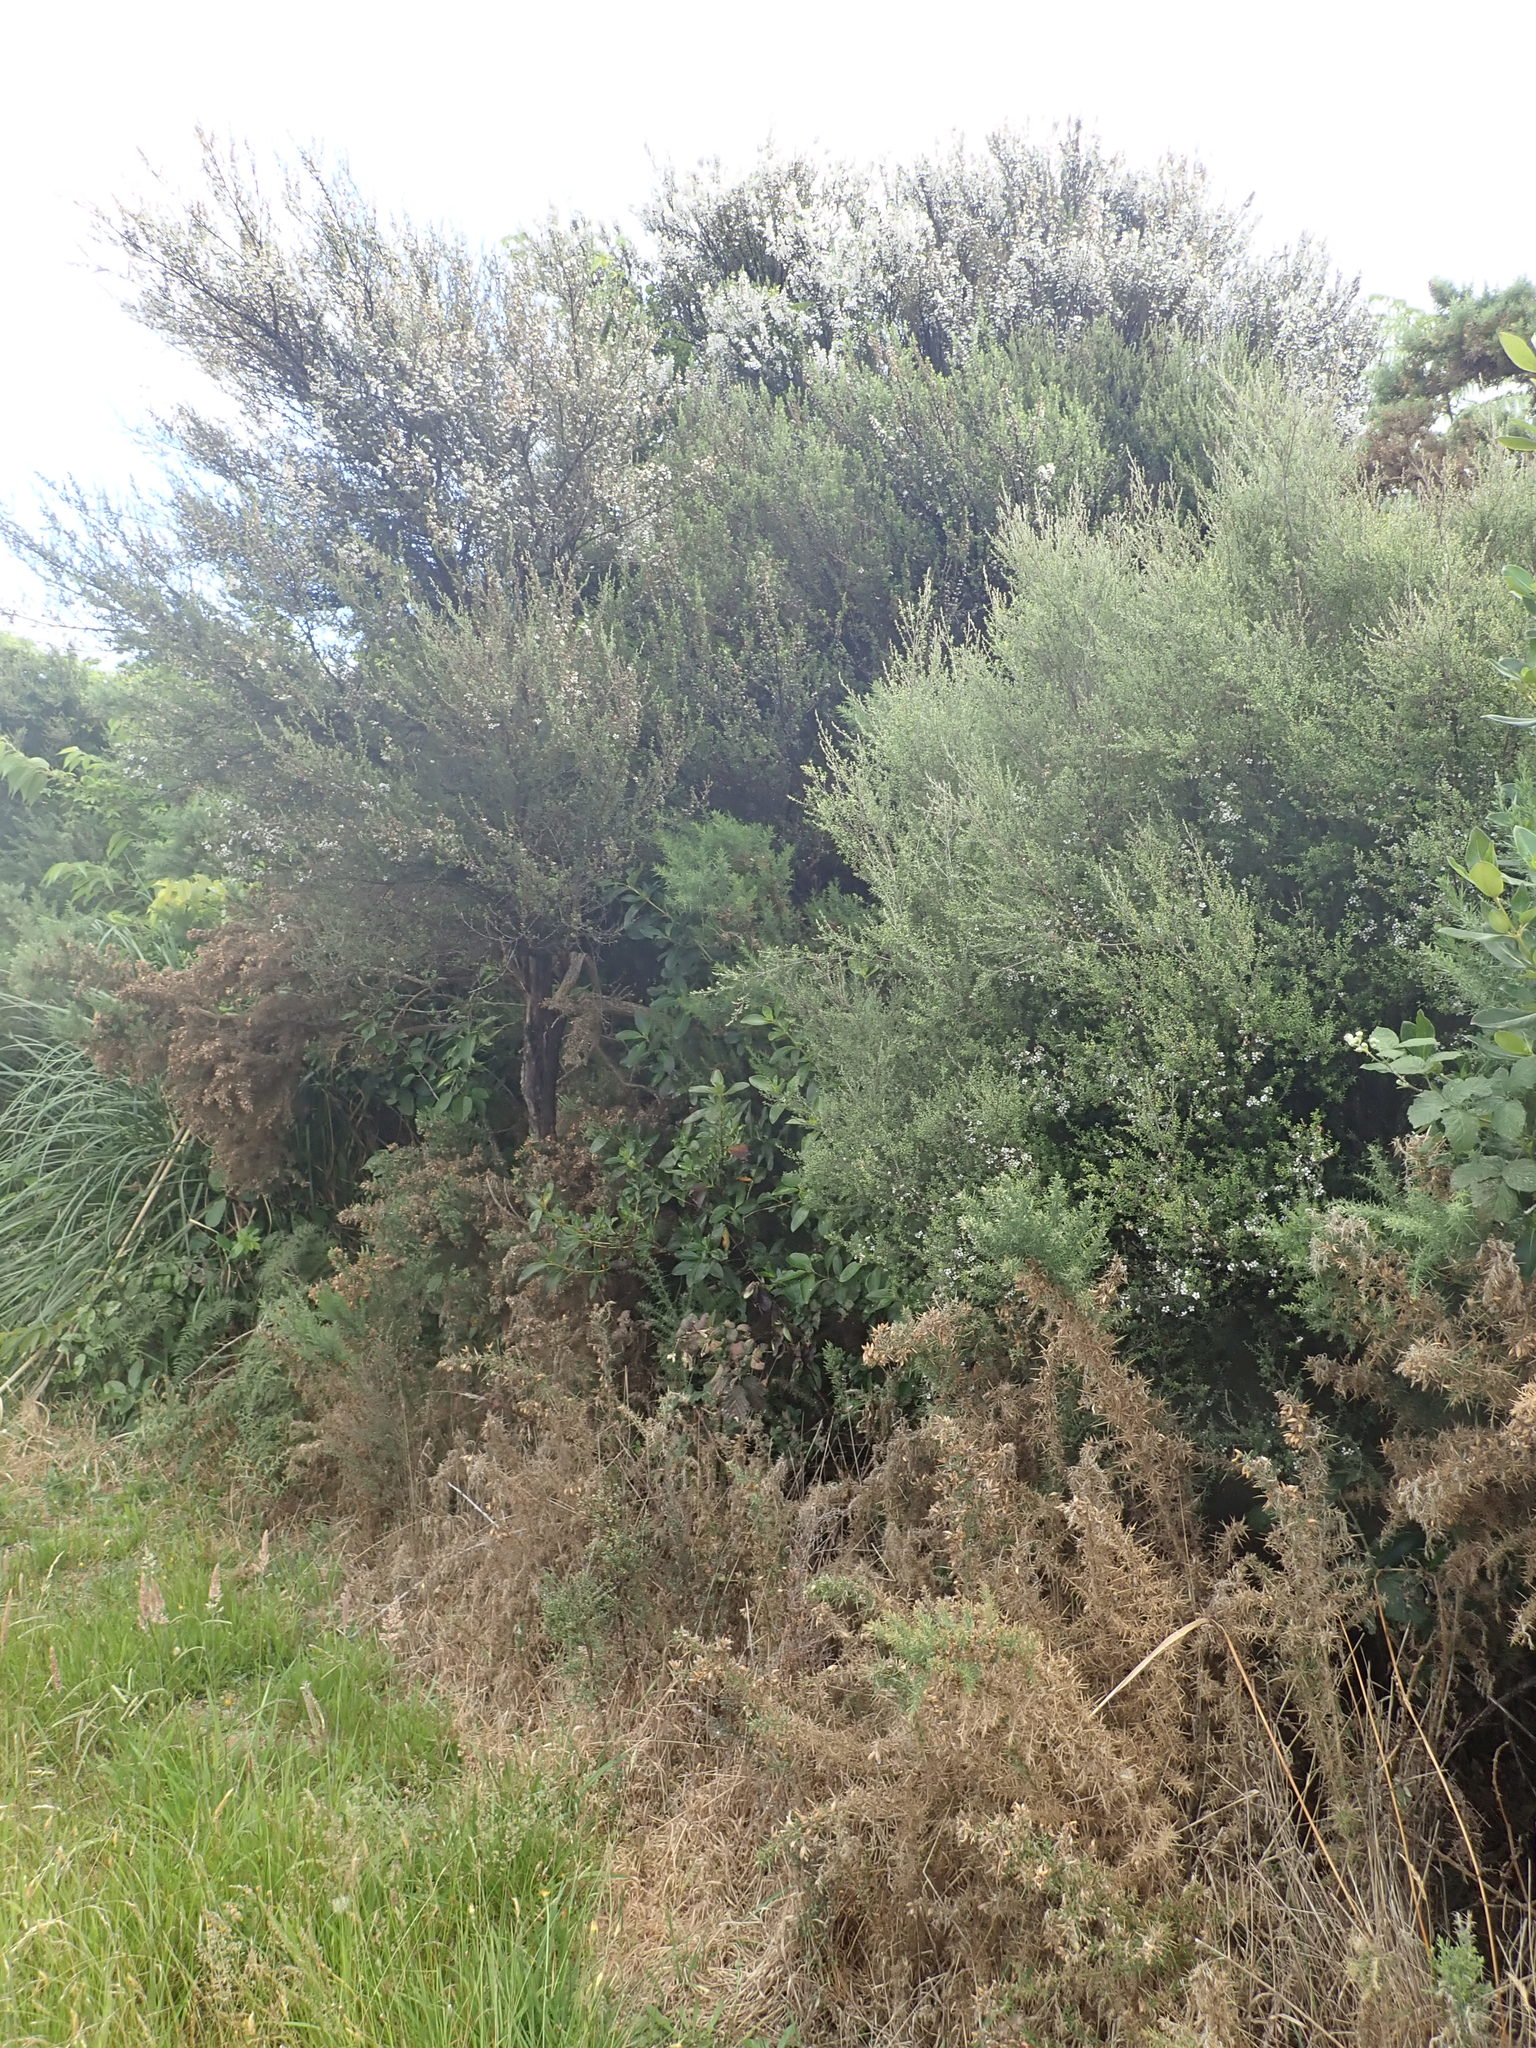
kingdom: Plantae
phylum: Tracheophyta
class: Magnoliopsida
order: Myrtales
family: Myrtaceae
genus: Leptospermum
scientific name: Leptospermum scoparium
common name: Broom tea-tree
